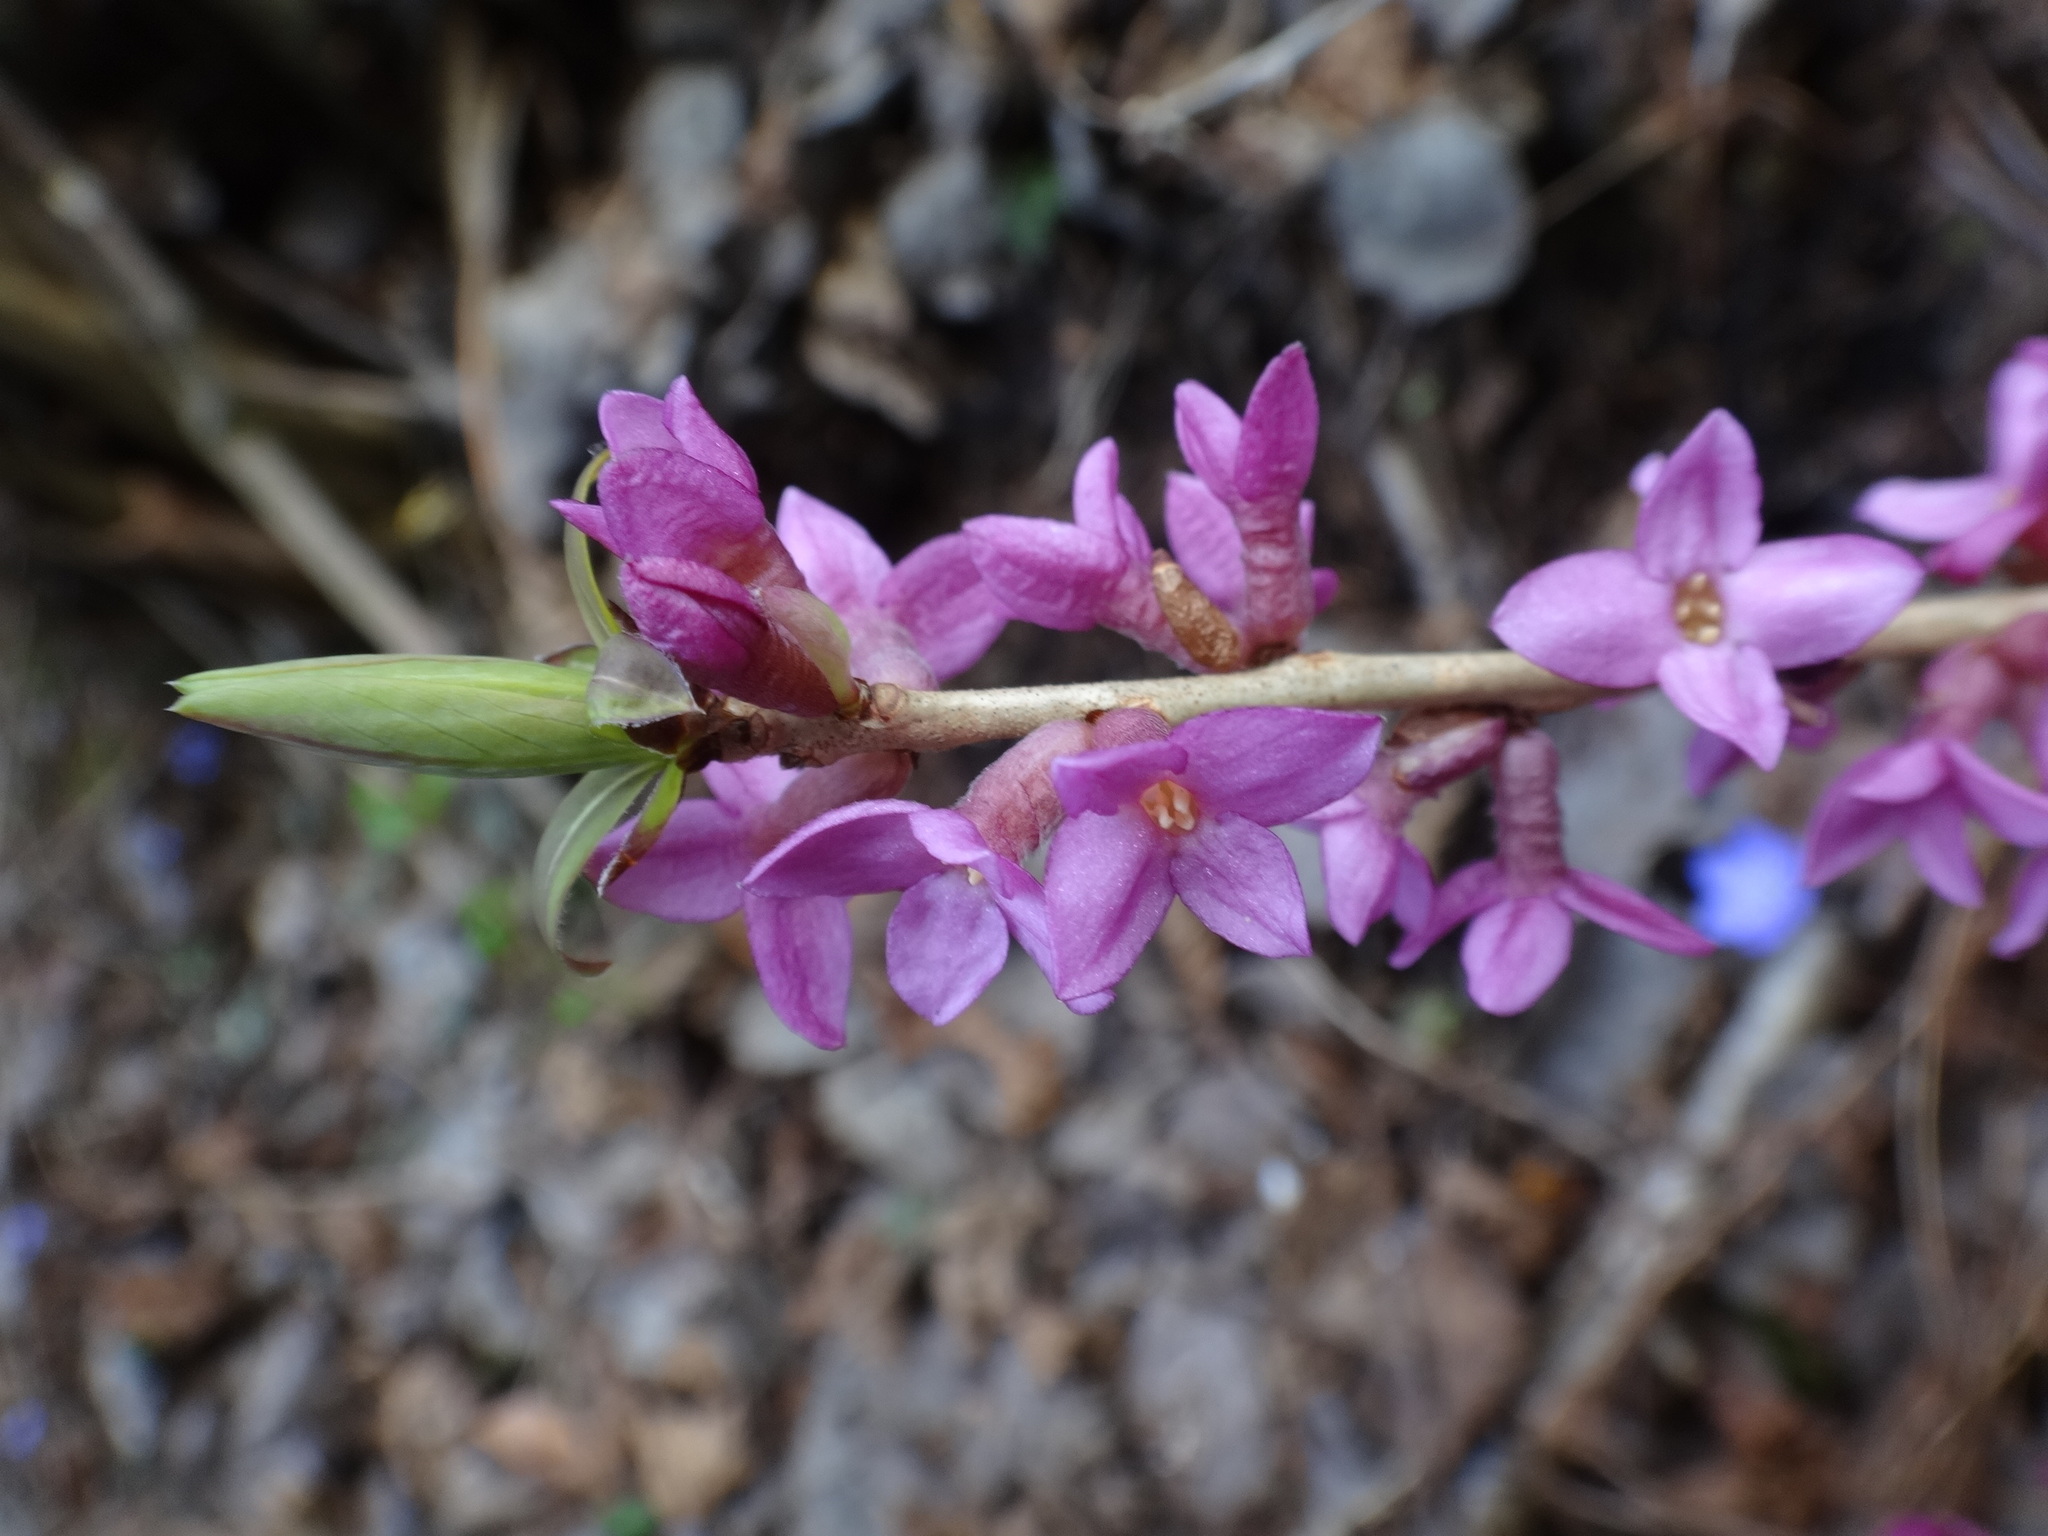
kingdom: Plantae
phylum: Tracheophyta
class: Magnoliopsida
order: Malvales
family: Thymelaeaceae
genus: Daphne
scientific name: Daphne mezereum
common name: Mezereon
